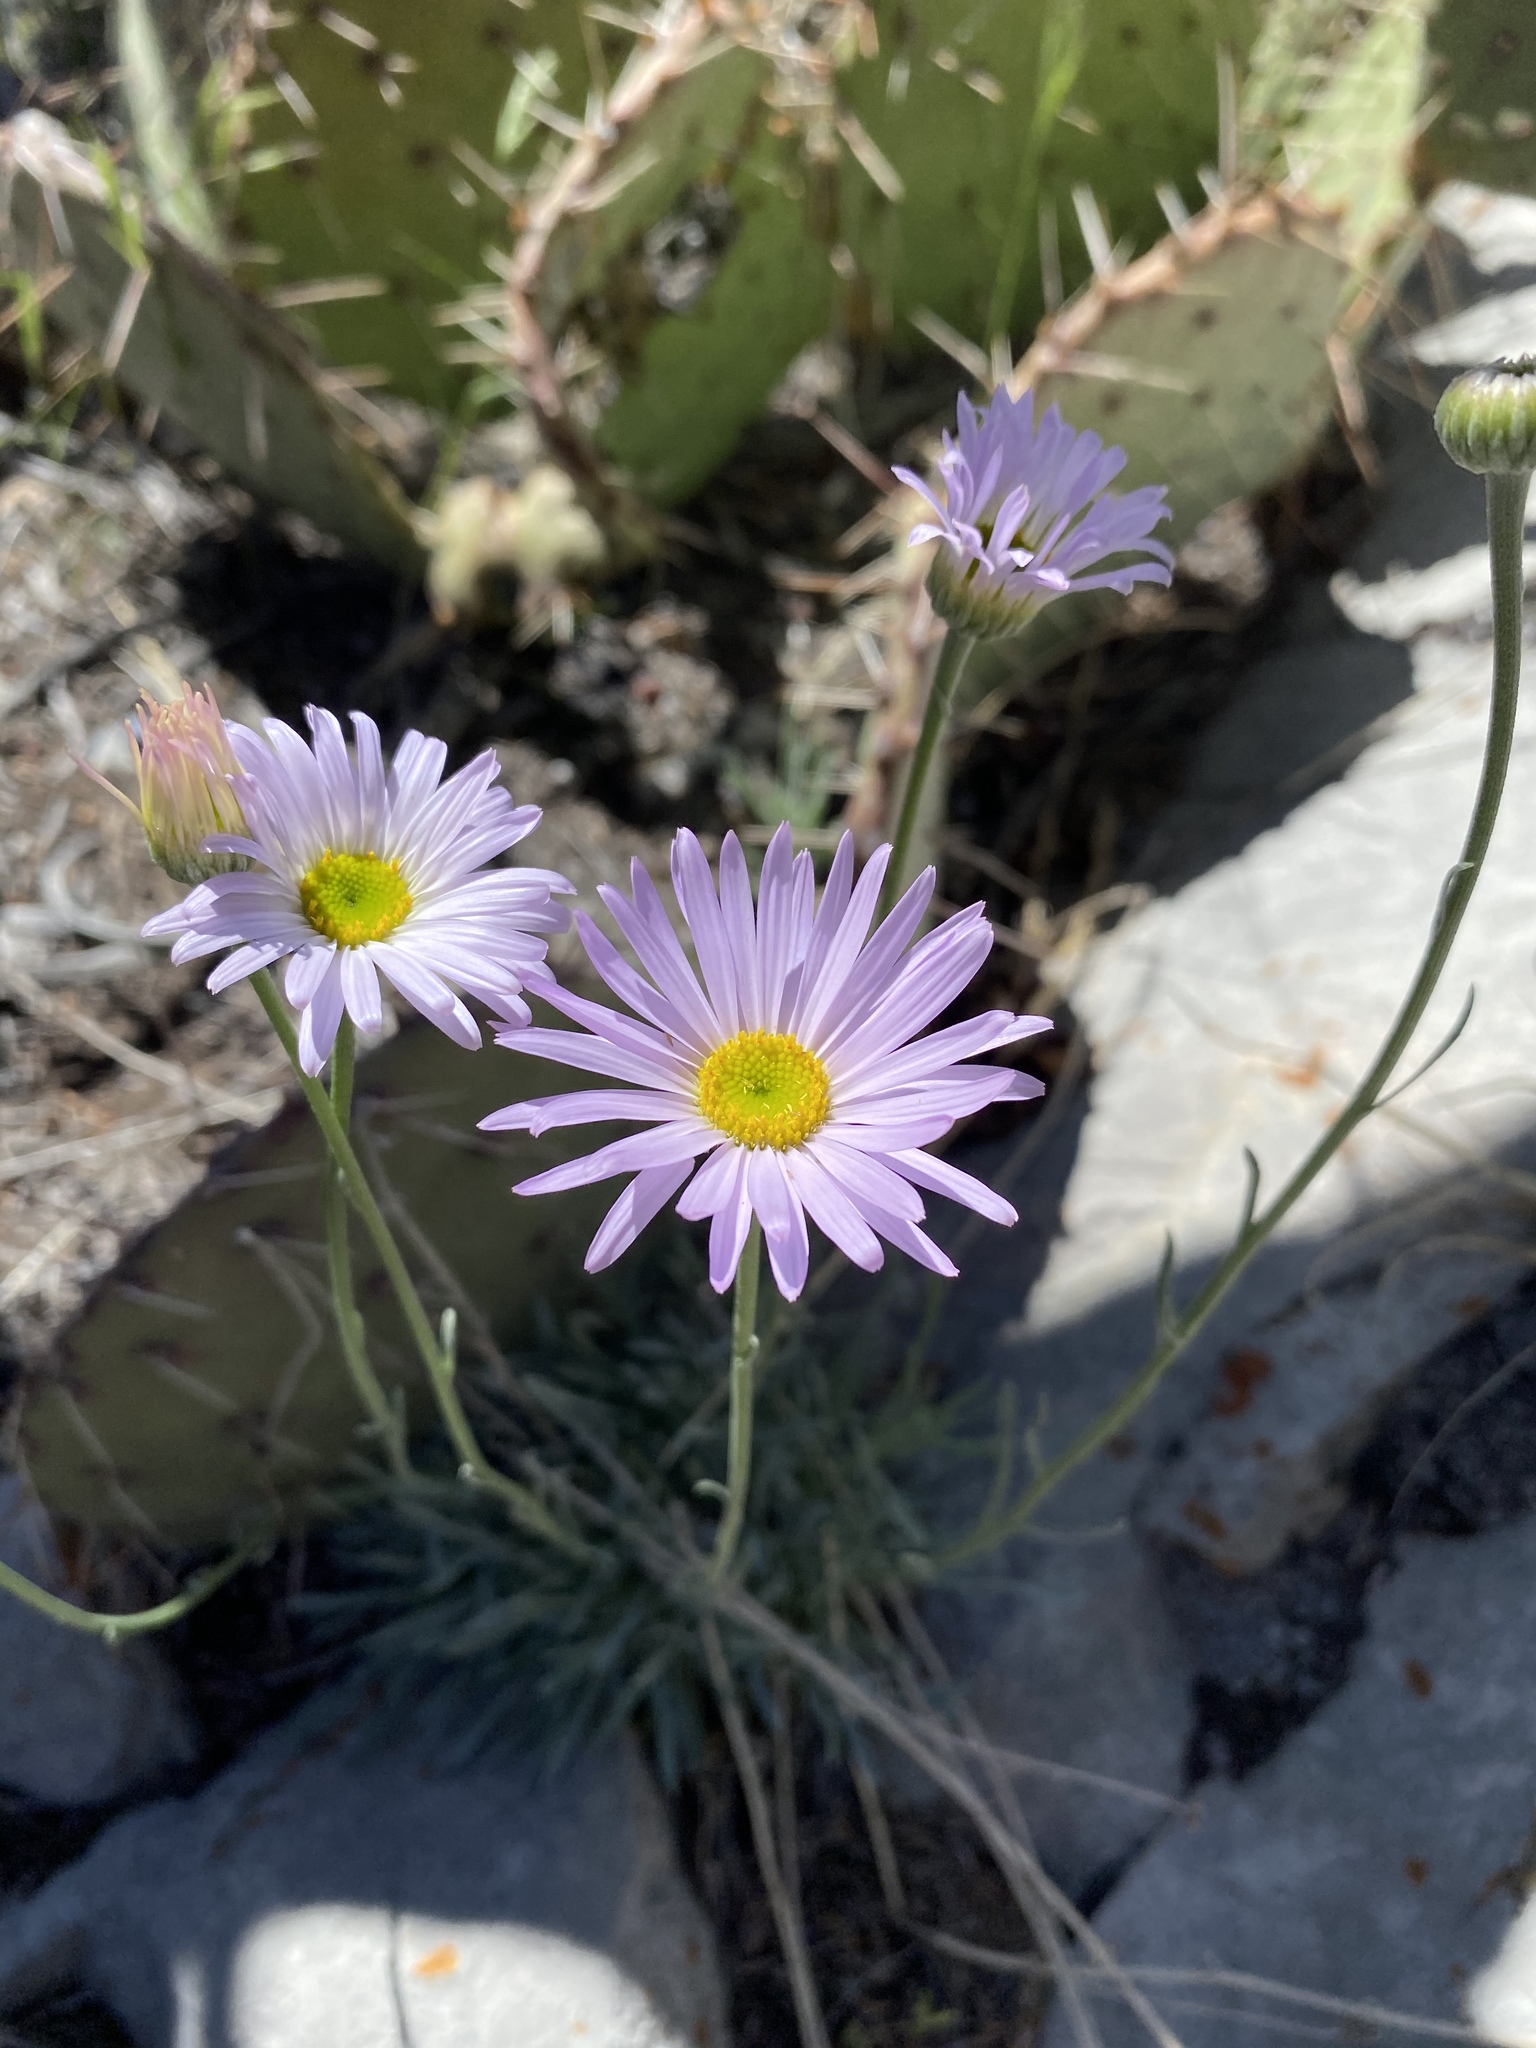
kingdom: Plantae
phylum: Tracheophyta
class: Magnoliopsida
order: Asterales
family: Asteraceae
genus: Erigeron
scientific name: Erigeron argentatus
